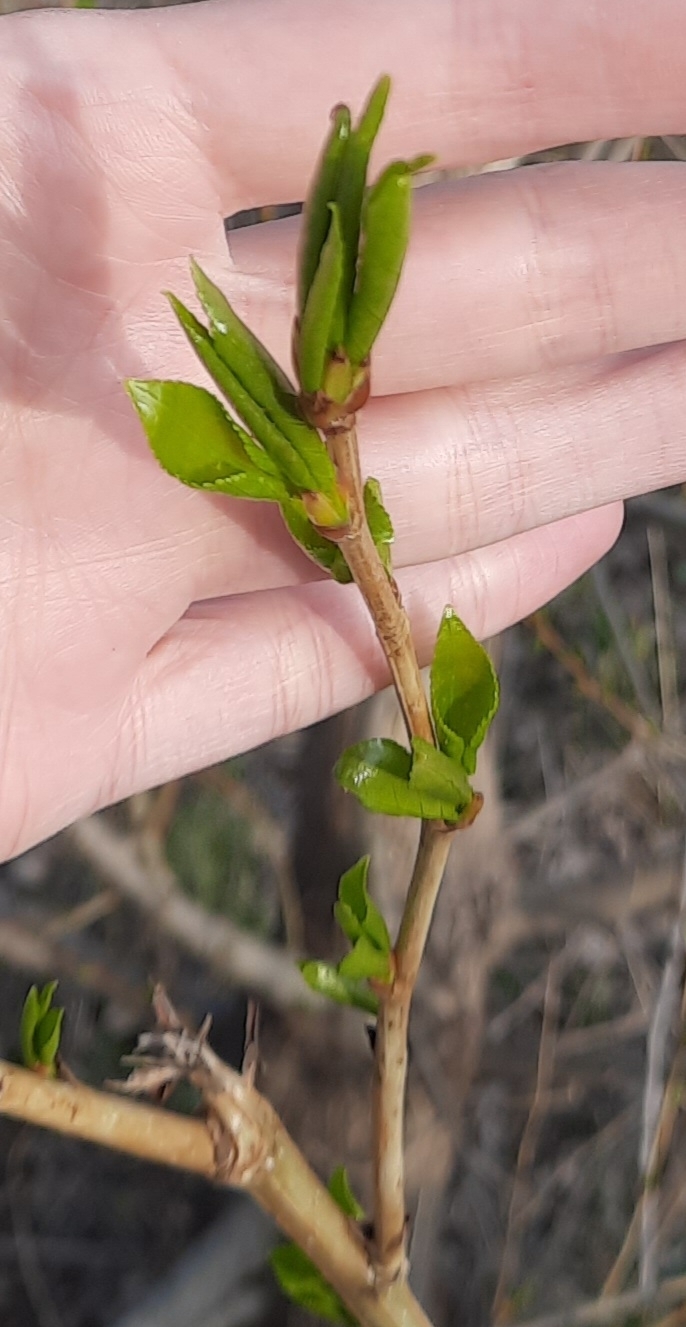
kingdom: Plantae
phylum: Tracheophyta
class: Magnoliopsida
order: Malpighiales
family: Salicaceae
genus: Populus
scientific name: Populus sibirica
